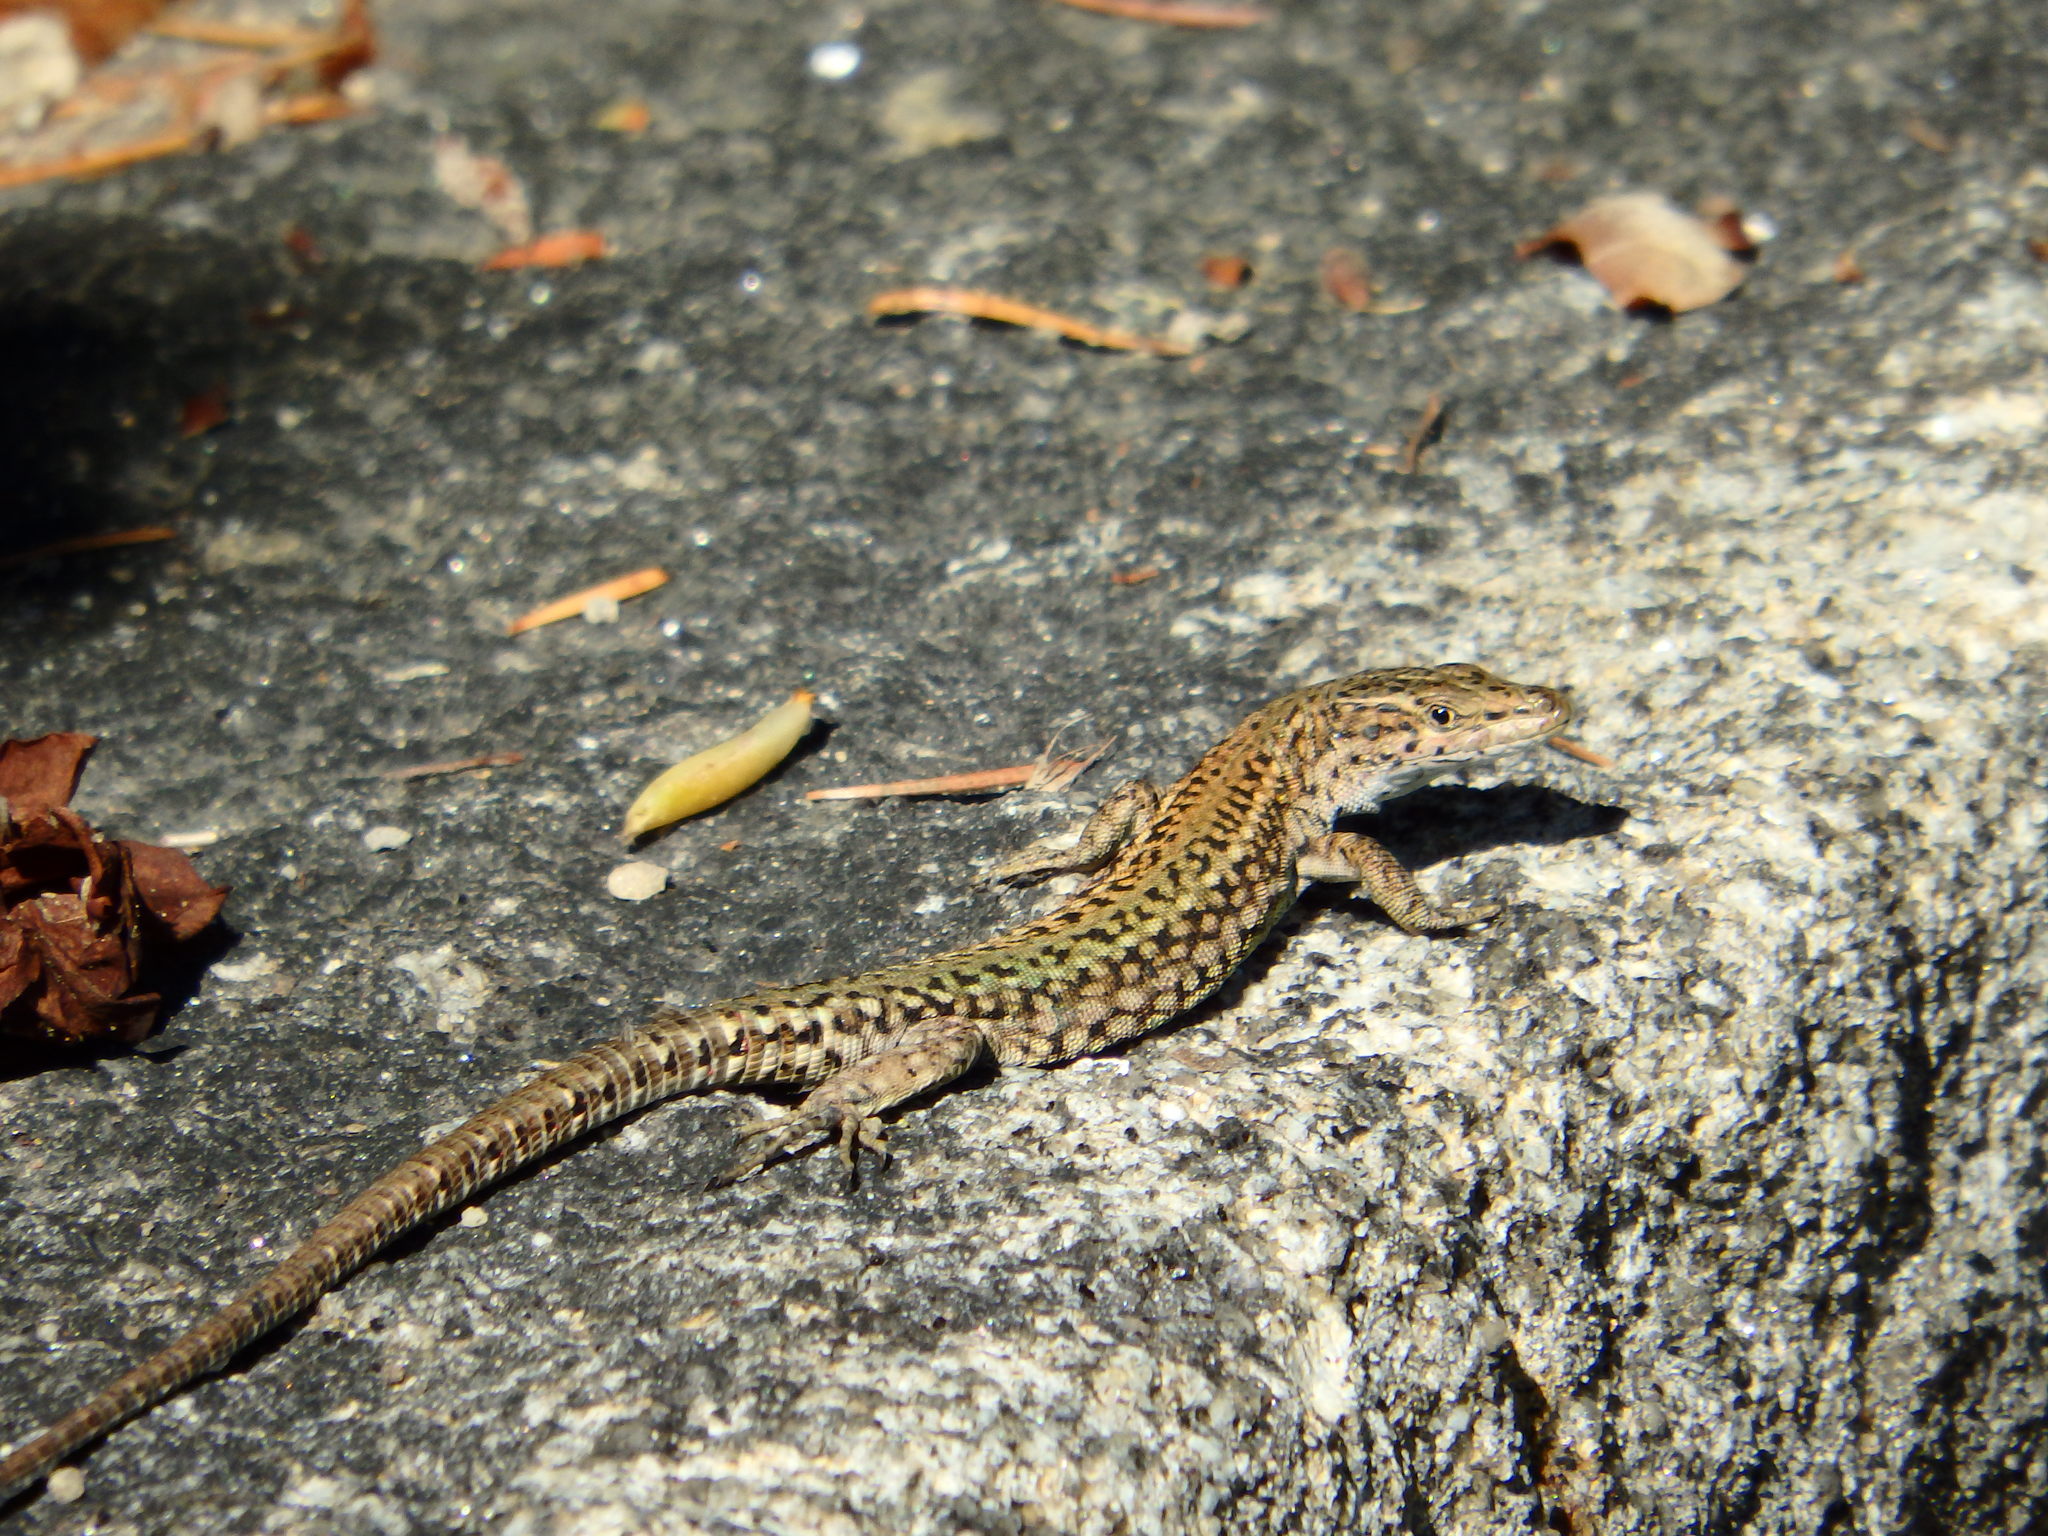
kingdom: Animalia
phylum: Chordata
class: Squamata
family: Lacertidae
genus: Podarcis
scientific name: Podarcis
